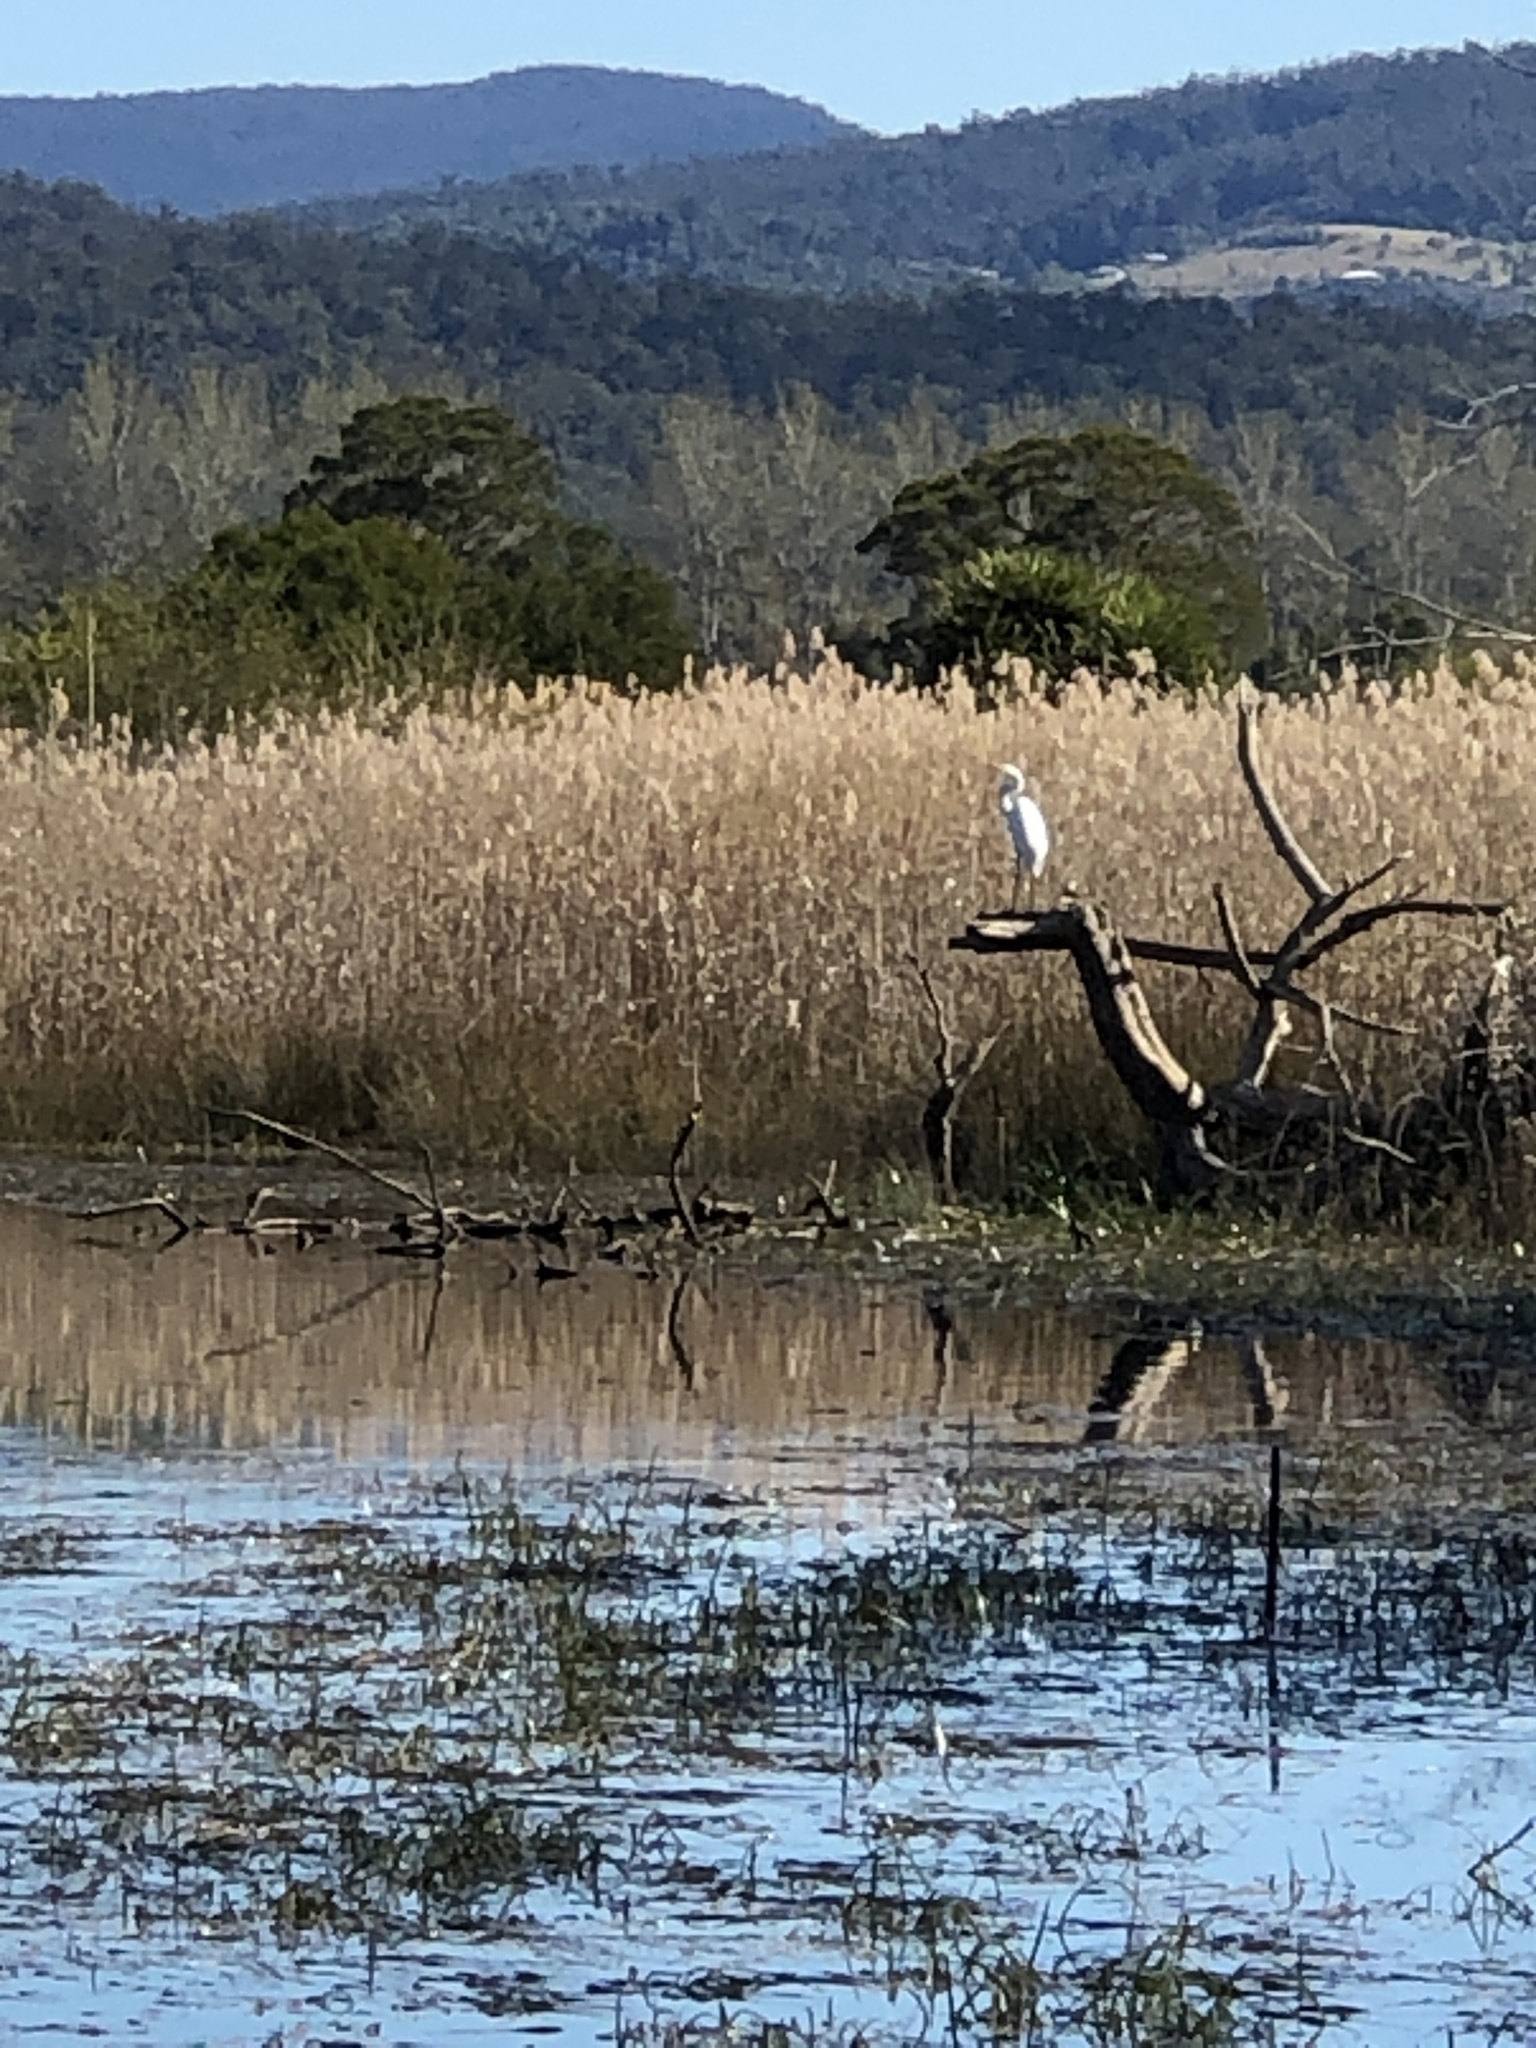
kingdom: Animalia
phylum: Chordata
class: Aves
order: Pelecaniformes
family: Ardeidae
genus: Ardea
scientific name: Ardea alba
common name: Great egret
